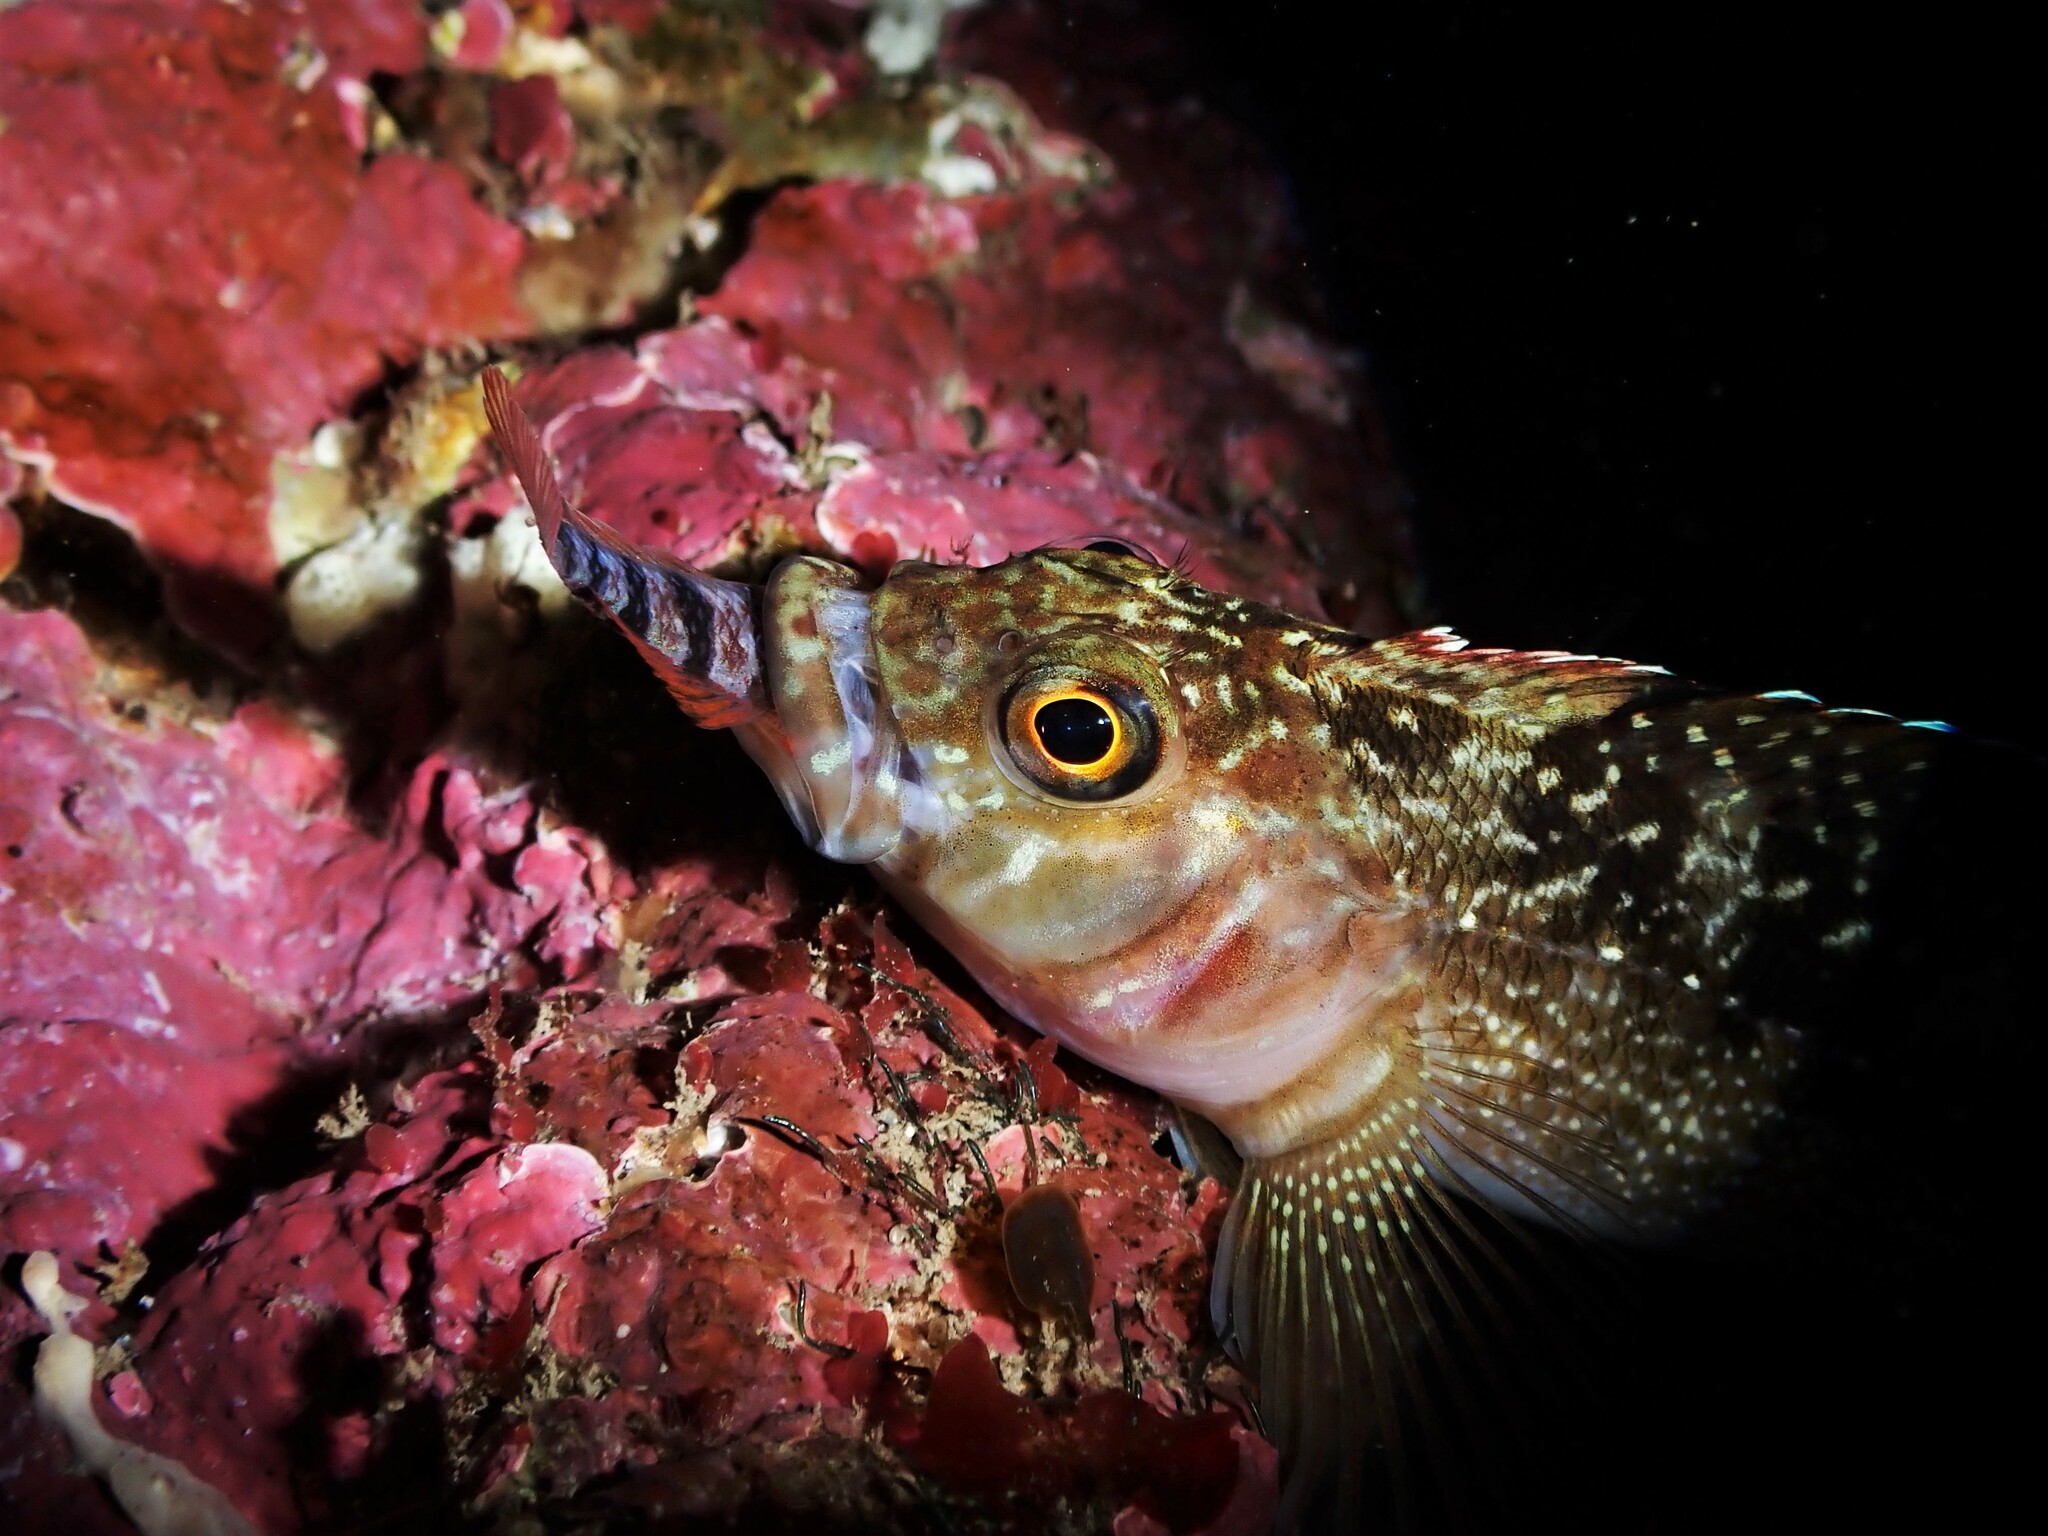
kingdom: Animalia
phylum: Chordata
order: Perciformes
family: Tripterygiidae
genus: Forsterygion
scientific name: Forsterygion varium
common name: Variable triplefin
